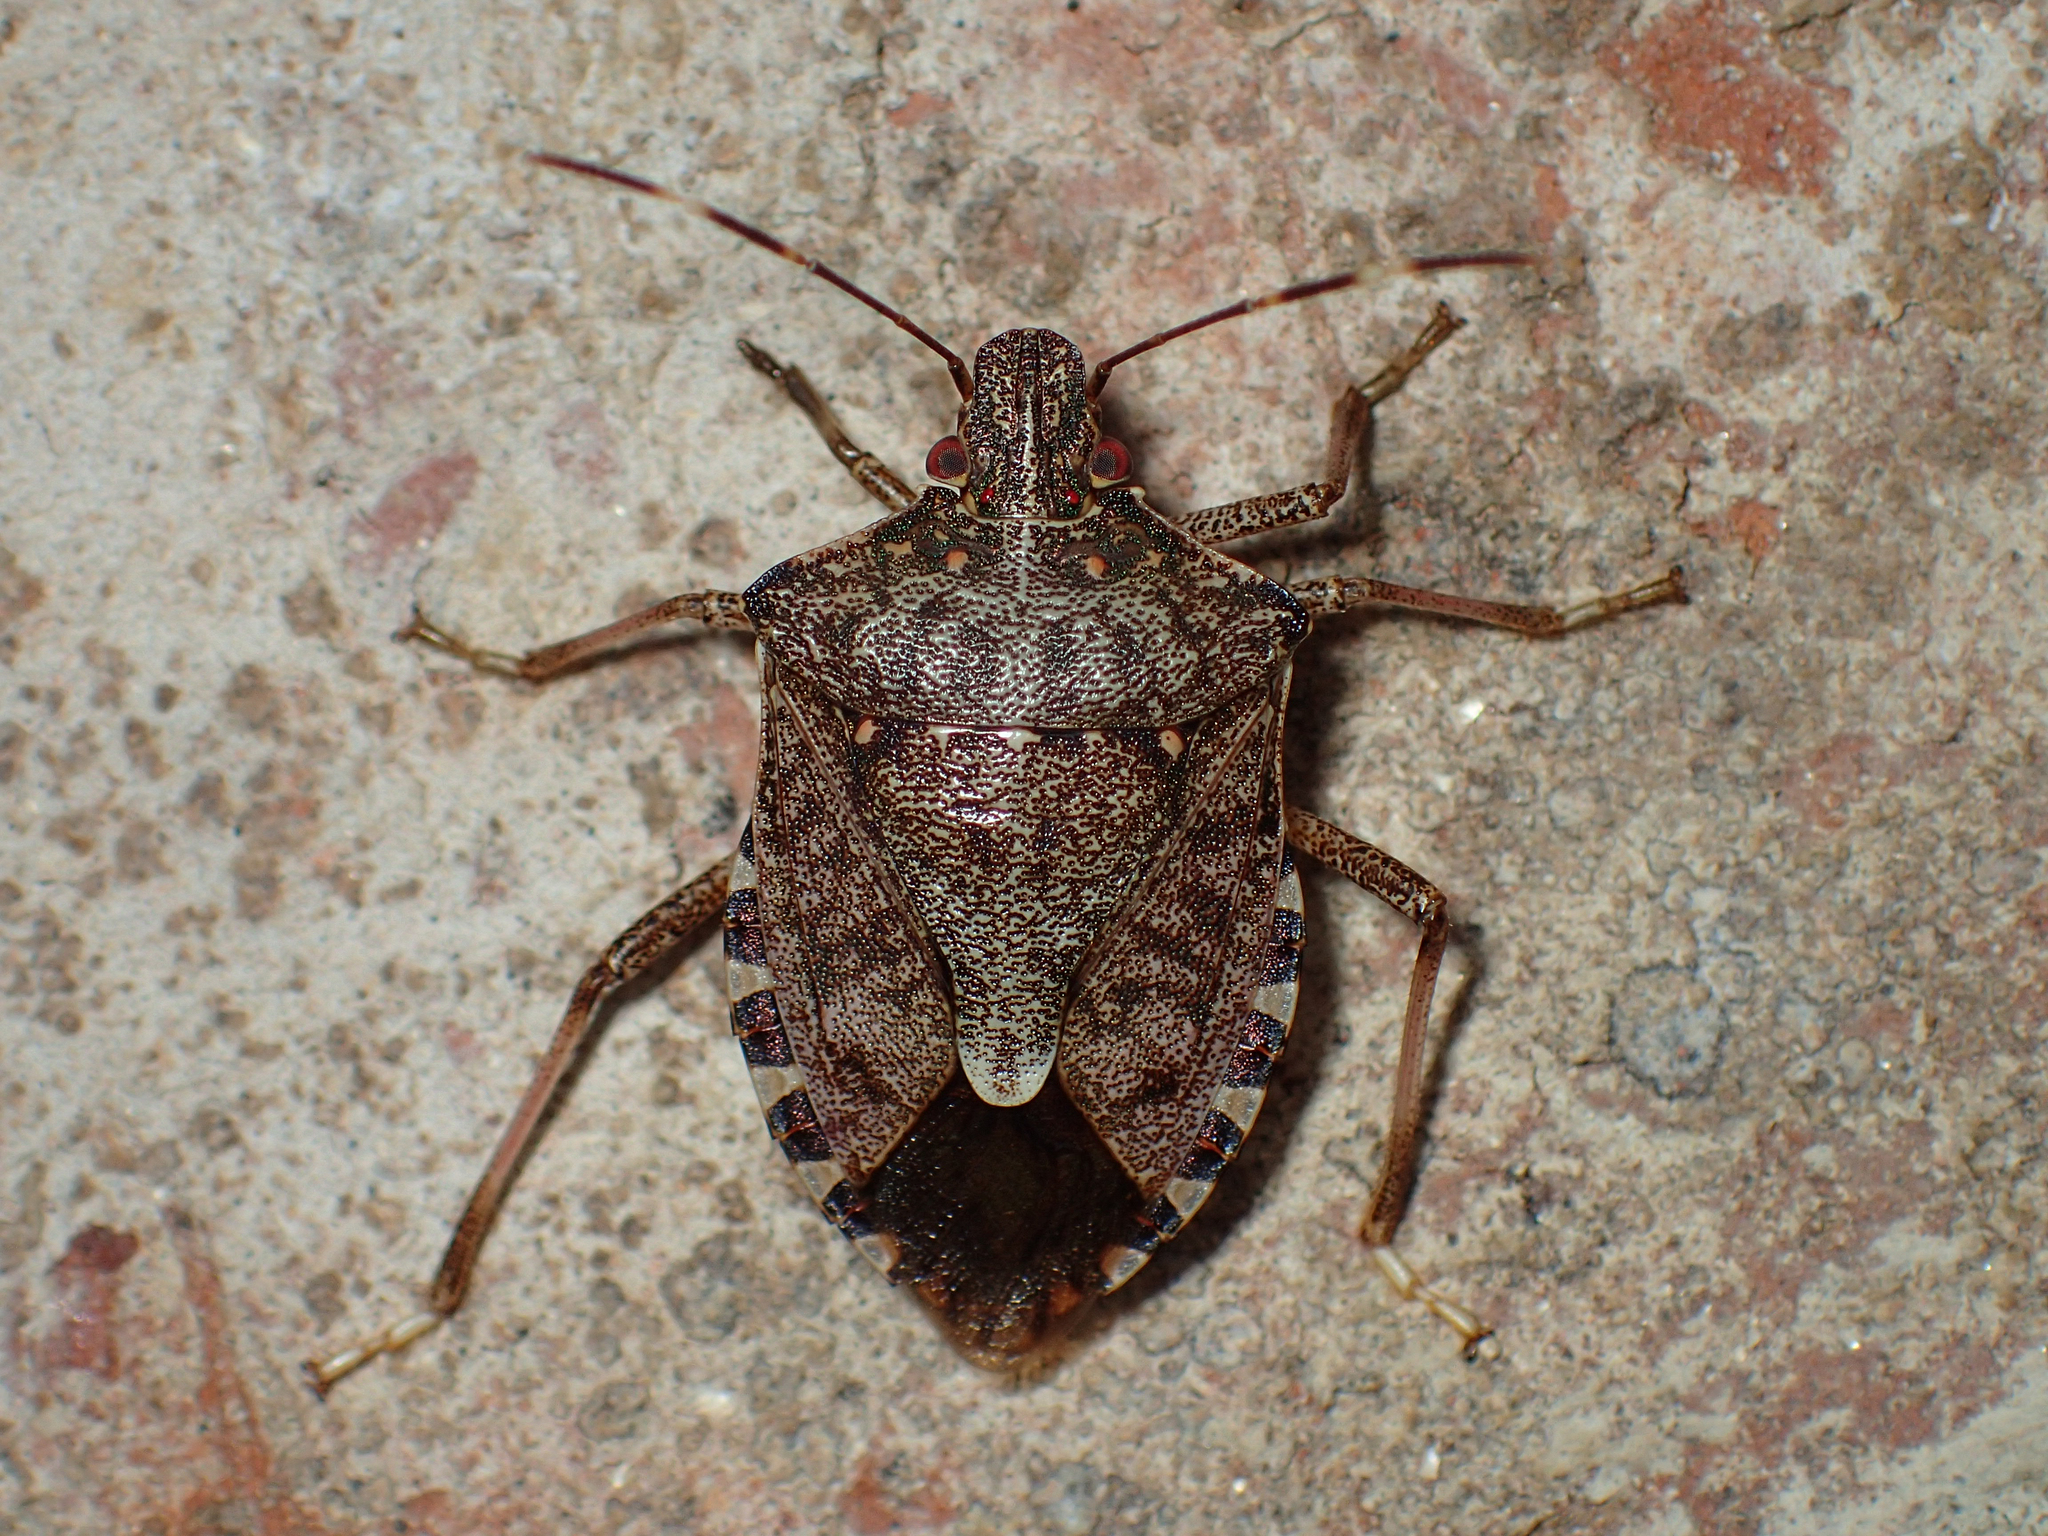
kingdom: Animalia
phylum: Arthropoda
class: Insecta
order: Hemiptera
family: Pentatomidae
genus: Halyomorpha
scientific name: Halyomorpha halys
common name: Brown marmorated stink bug
